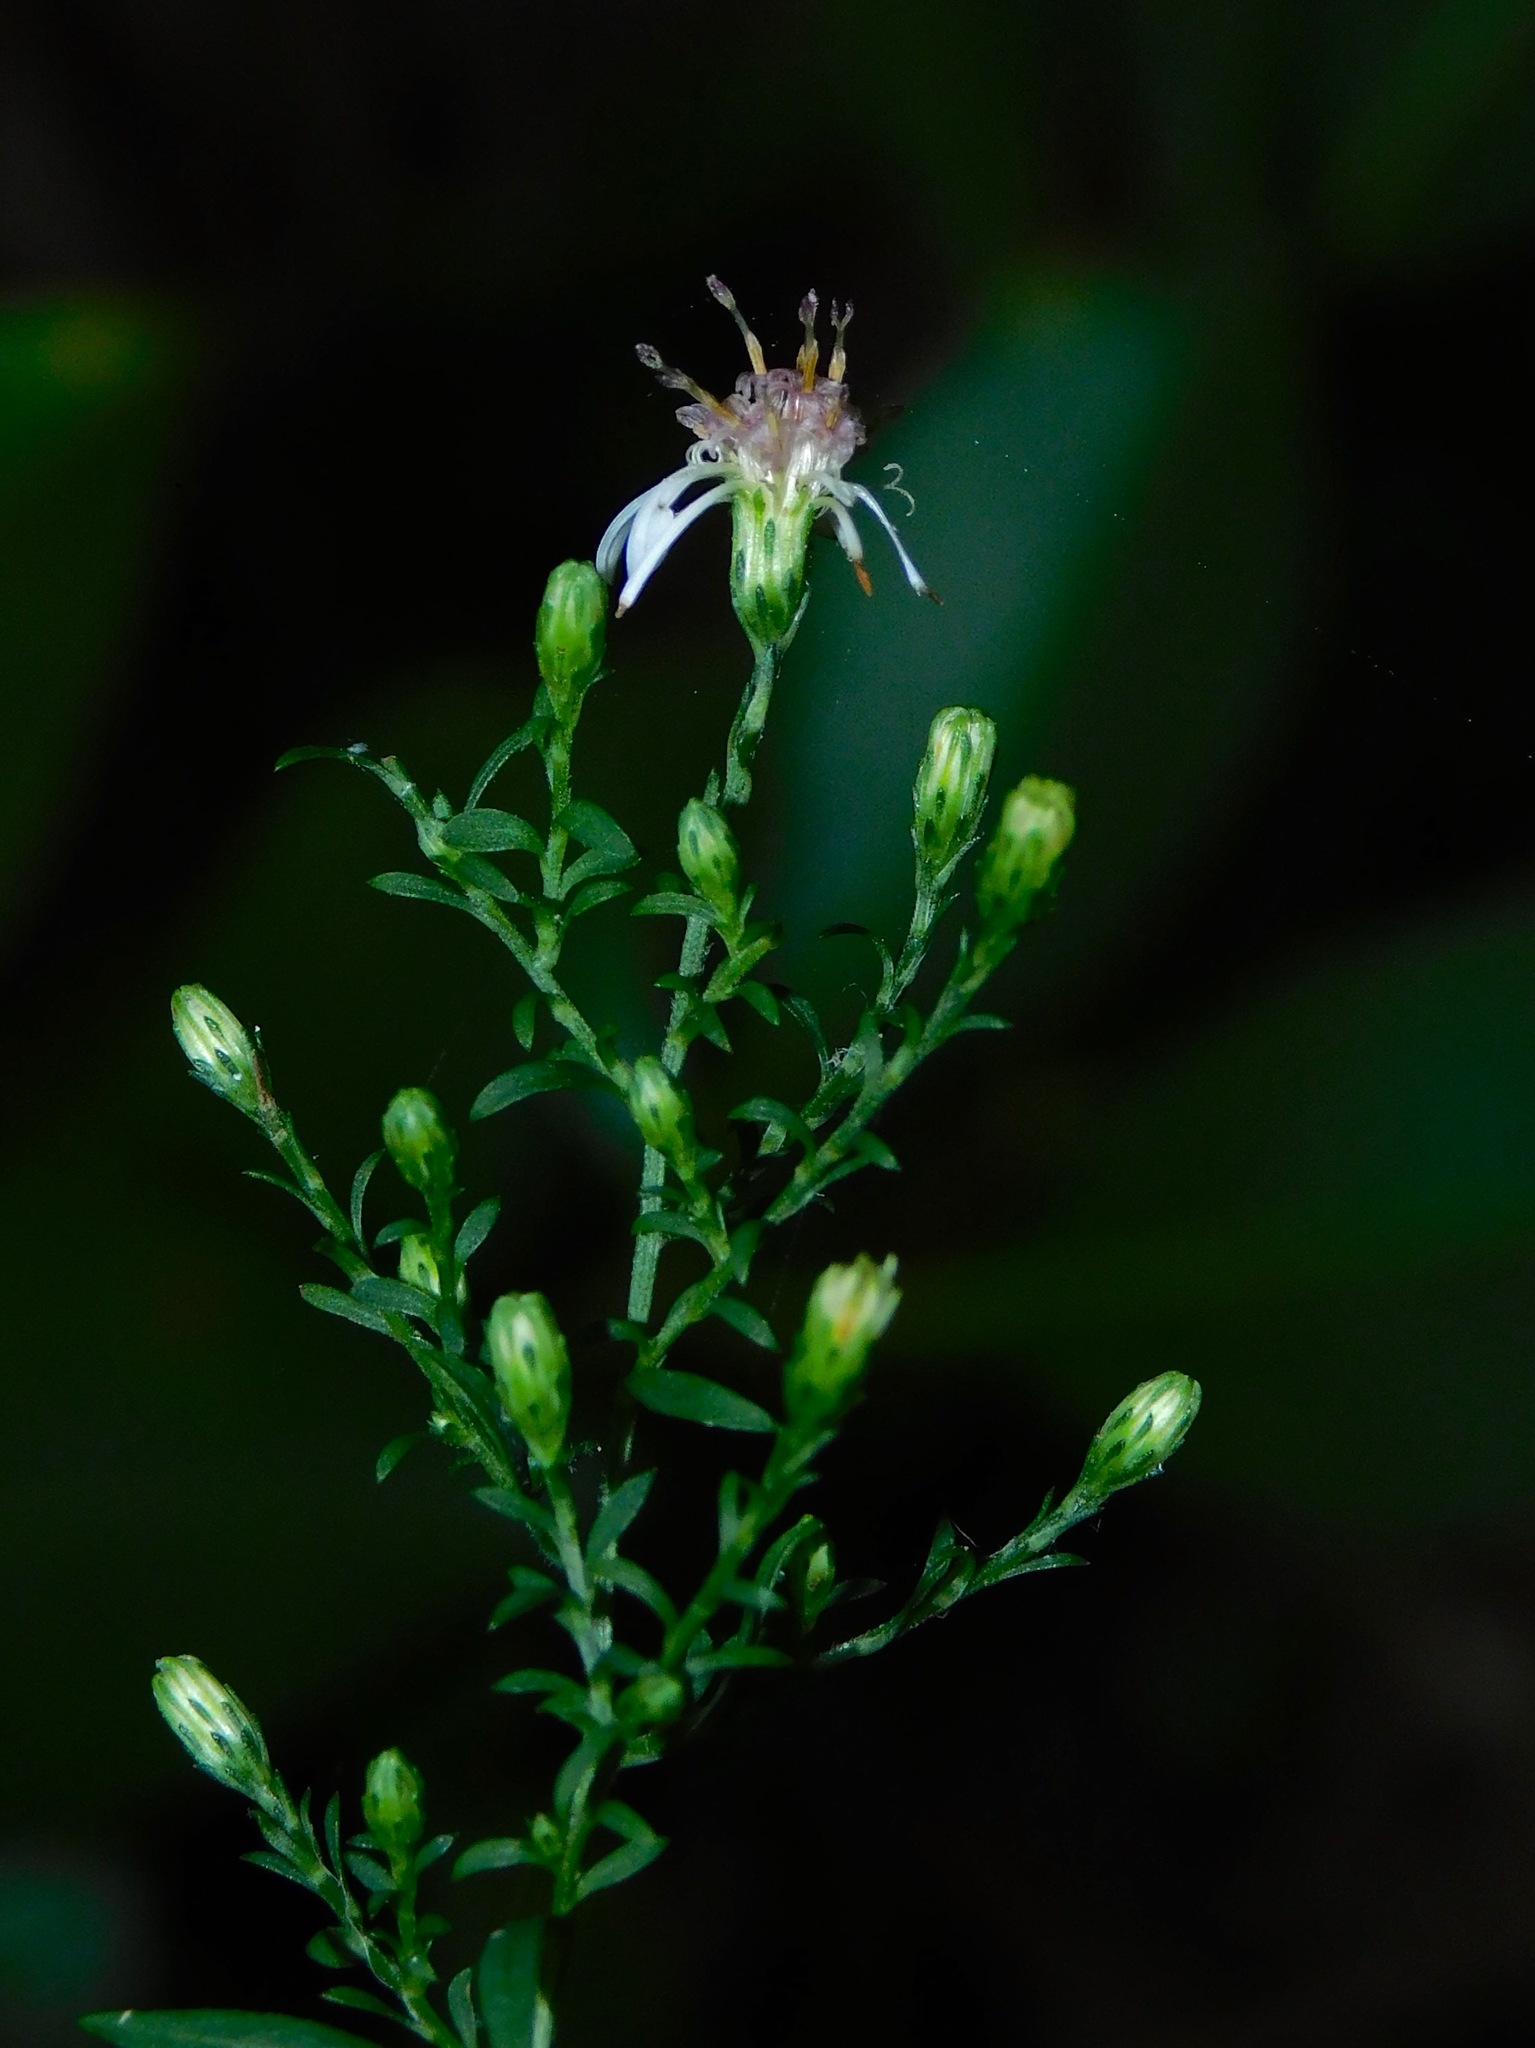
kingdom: Plantae
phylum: Tracheophyta
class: Magnoliopsida
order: Asterales
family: Asteraceae
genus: Symphyotrichum
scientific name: Symphyotrichum lateriflorum
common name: Calico aster
